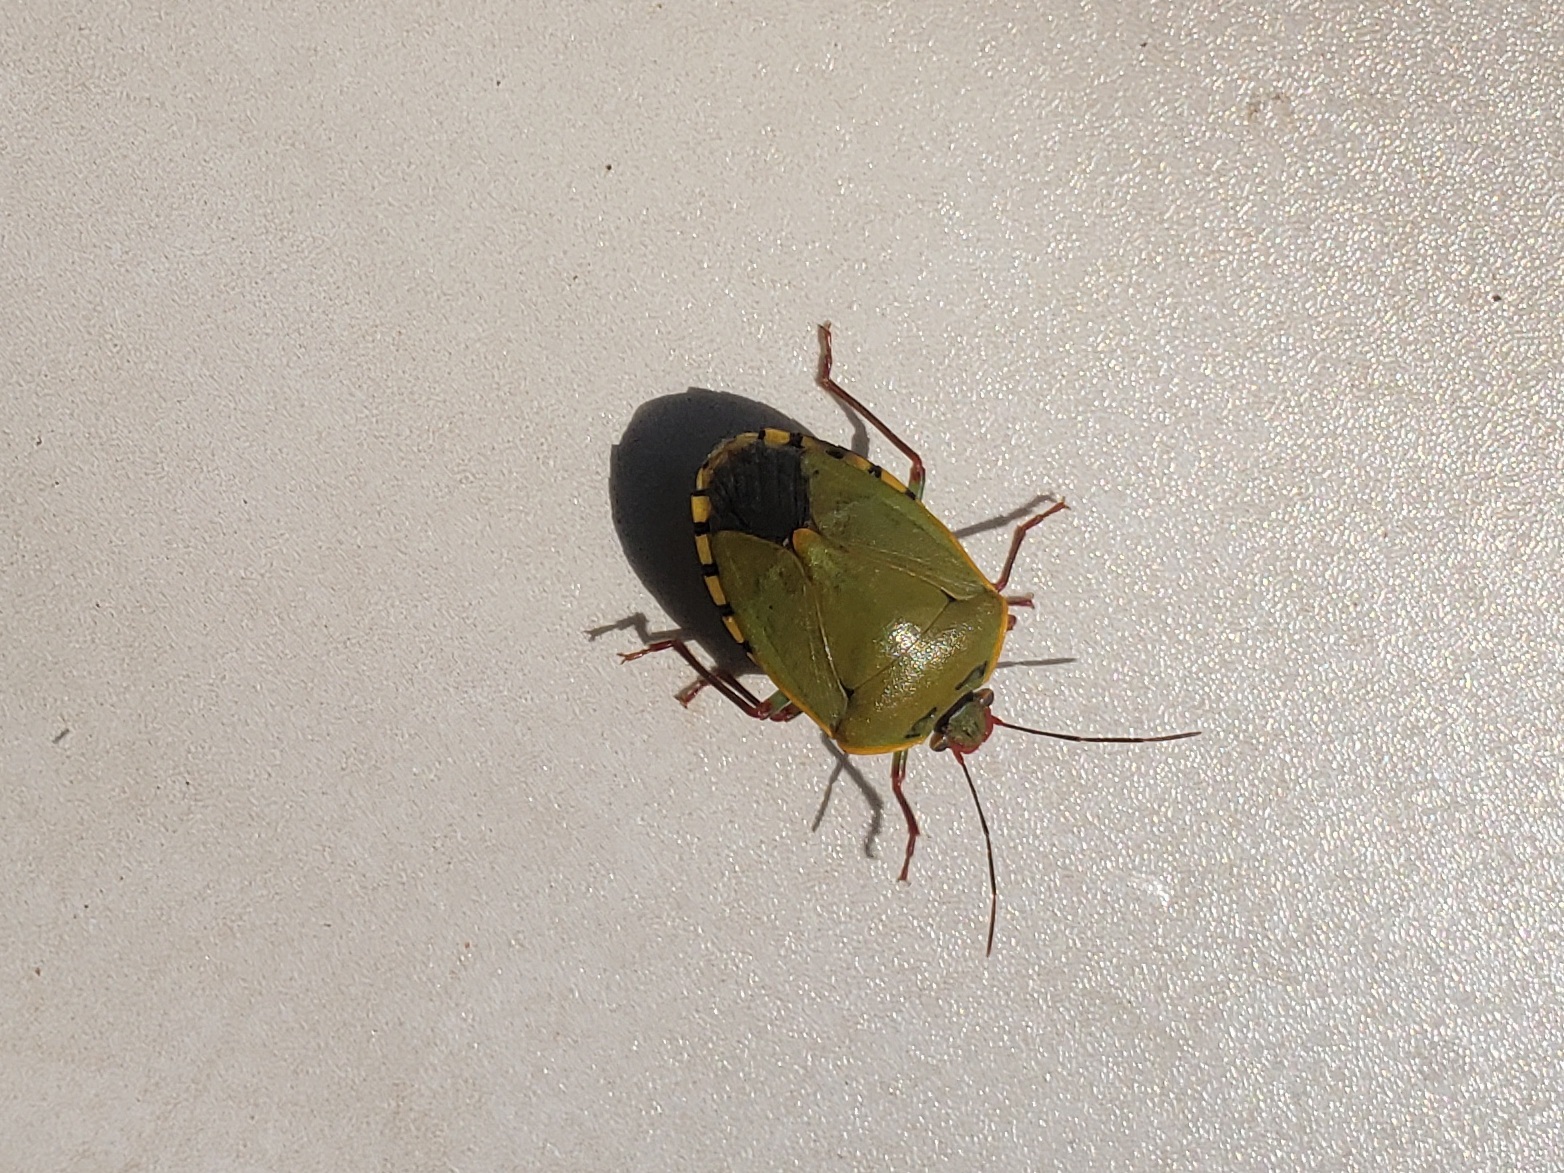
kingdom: Animalia
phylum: Arthropoda
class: Insecta
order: Hemiptera
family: Pentatomidae
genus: Chinavia
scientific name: Chinavia erythrocnemis
